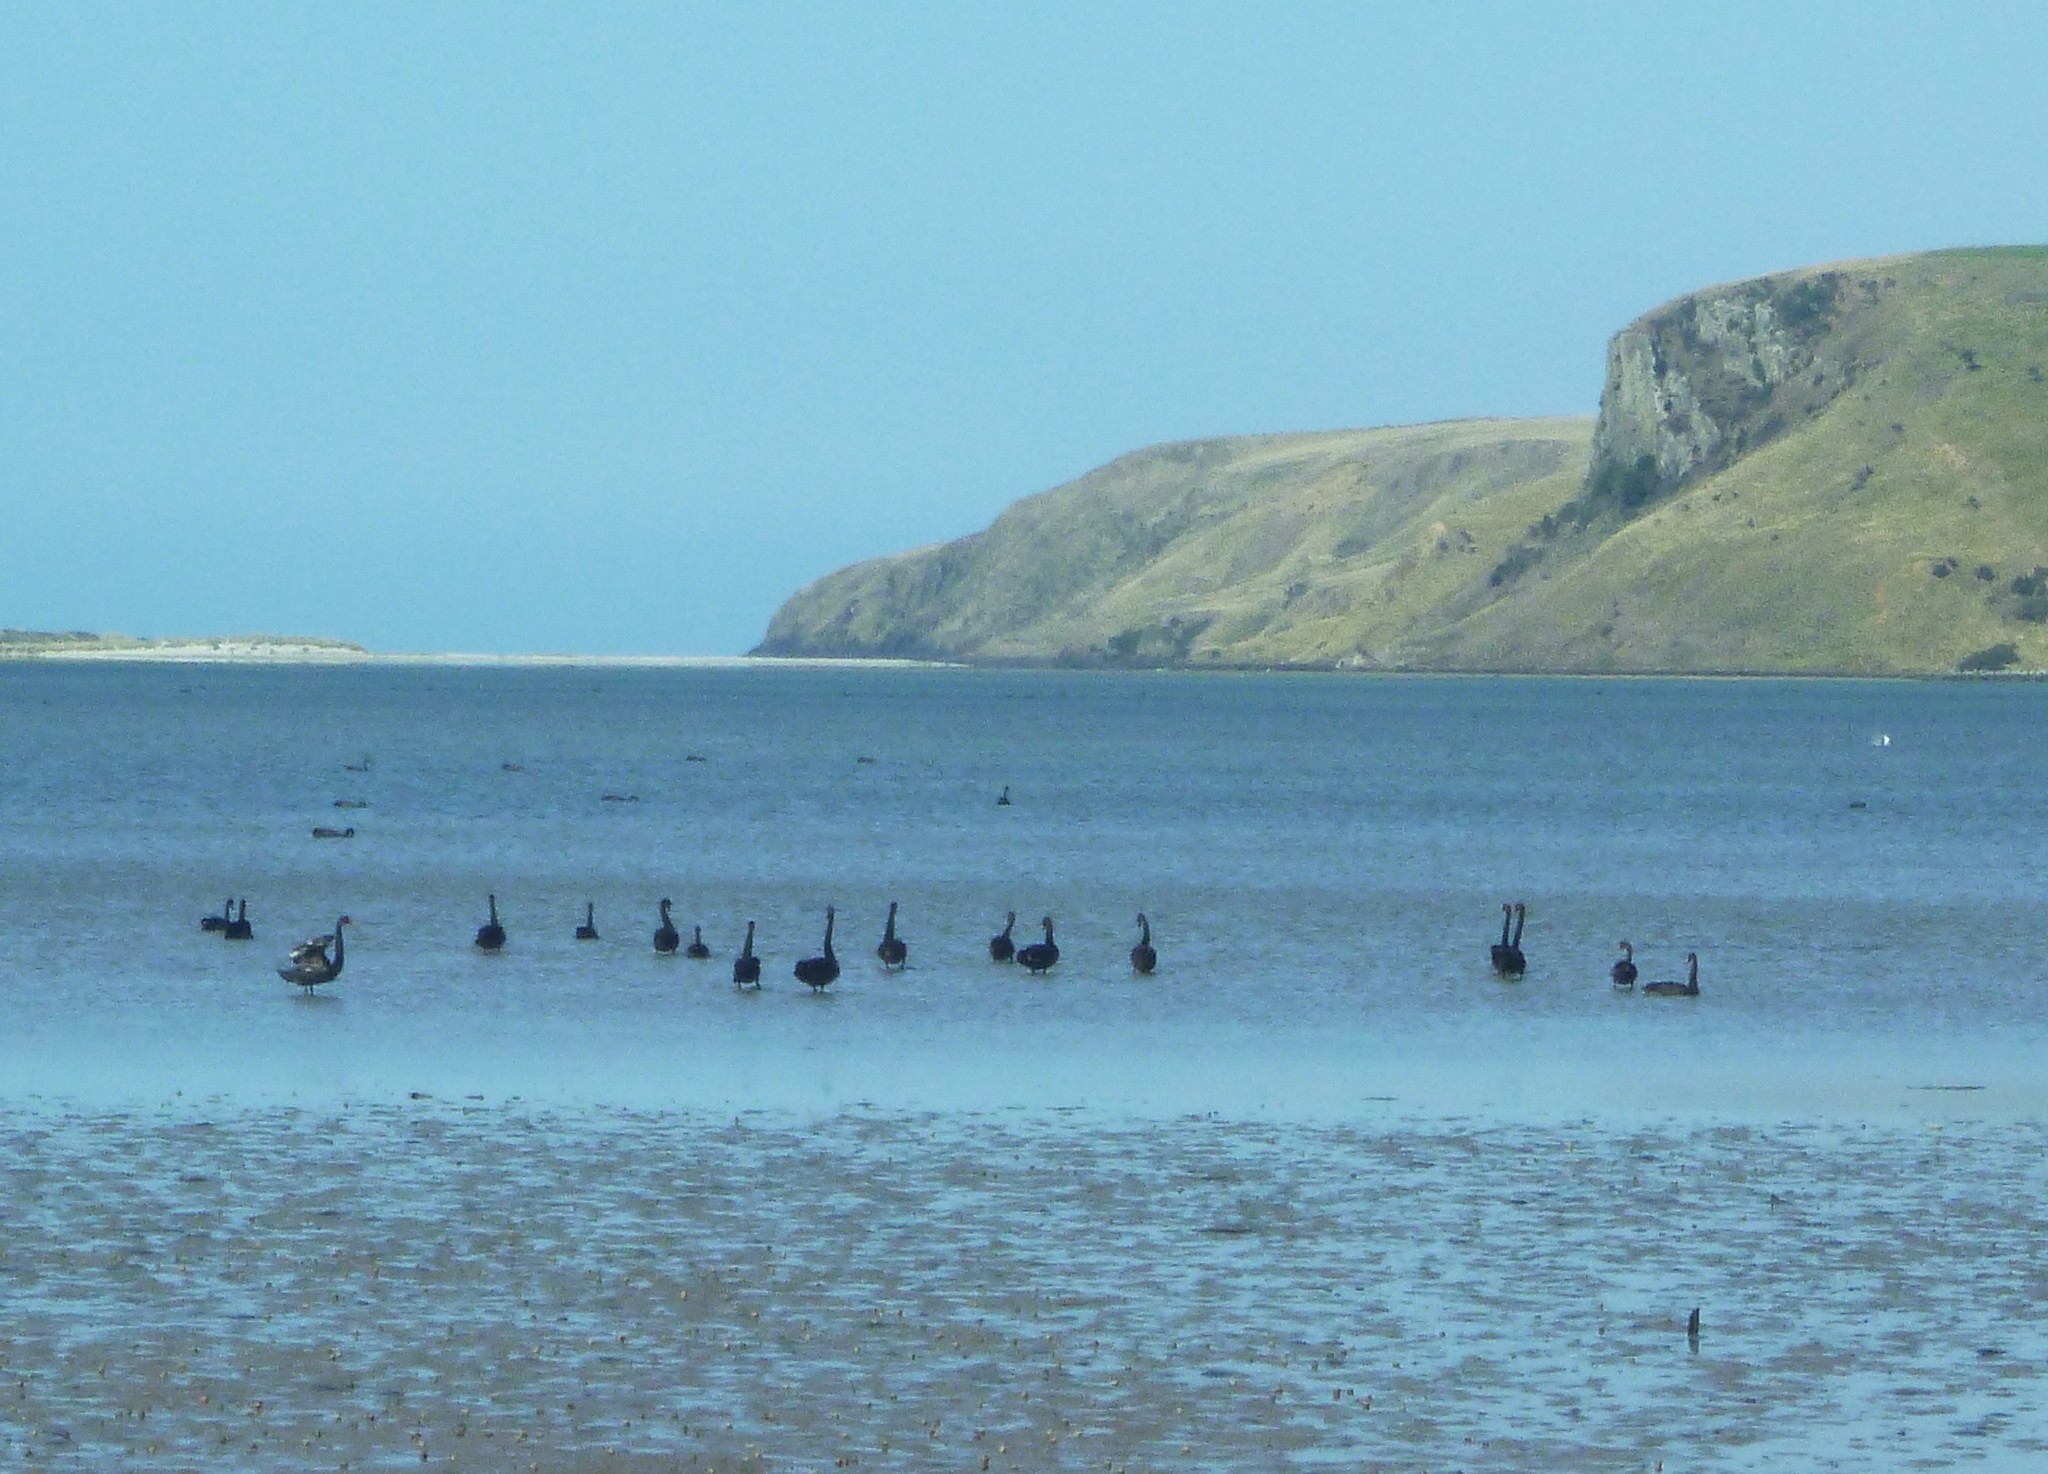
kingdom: Animalia
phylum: Chordata
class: Aves
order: Anseriformes
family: Anatidae
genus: Cygnus
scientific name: Cygnus atratus
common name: Black swan
